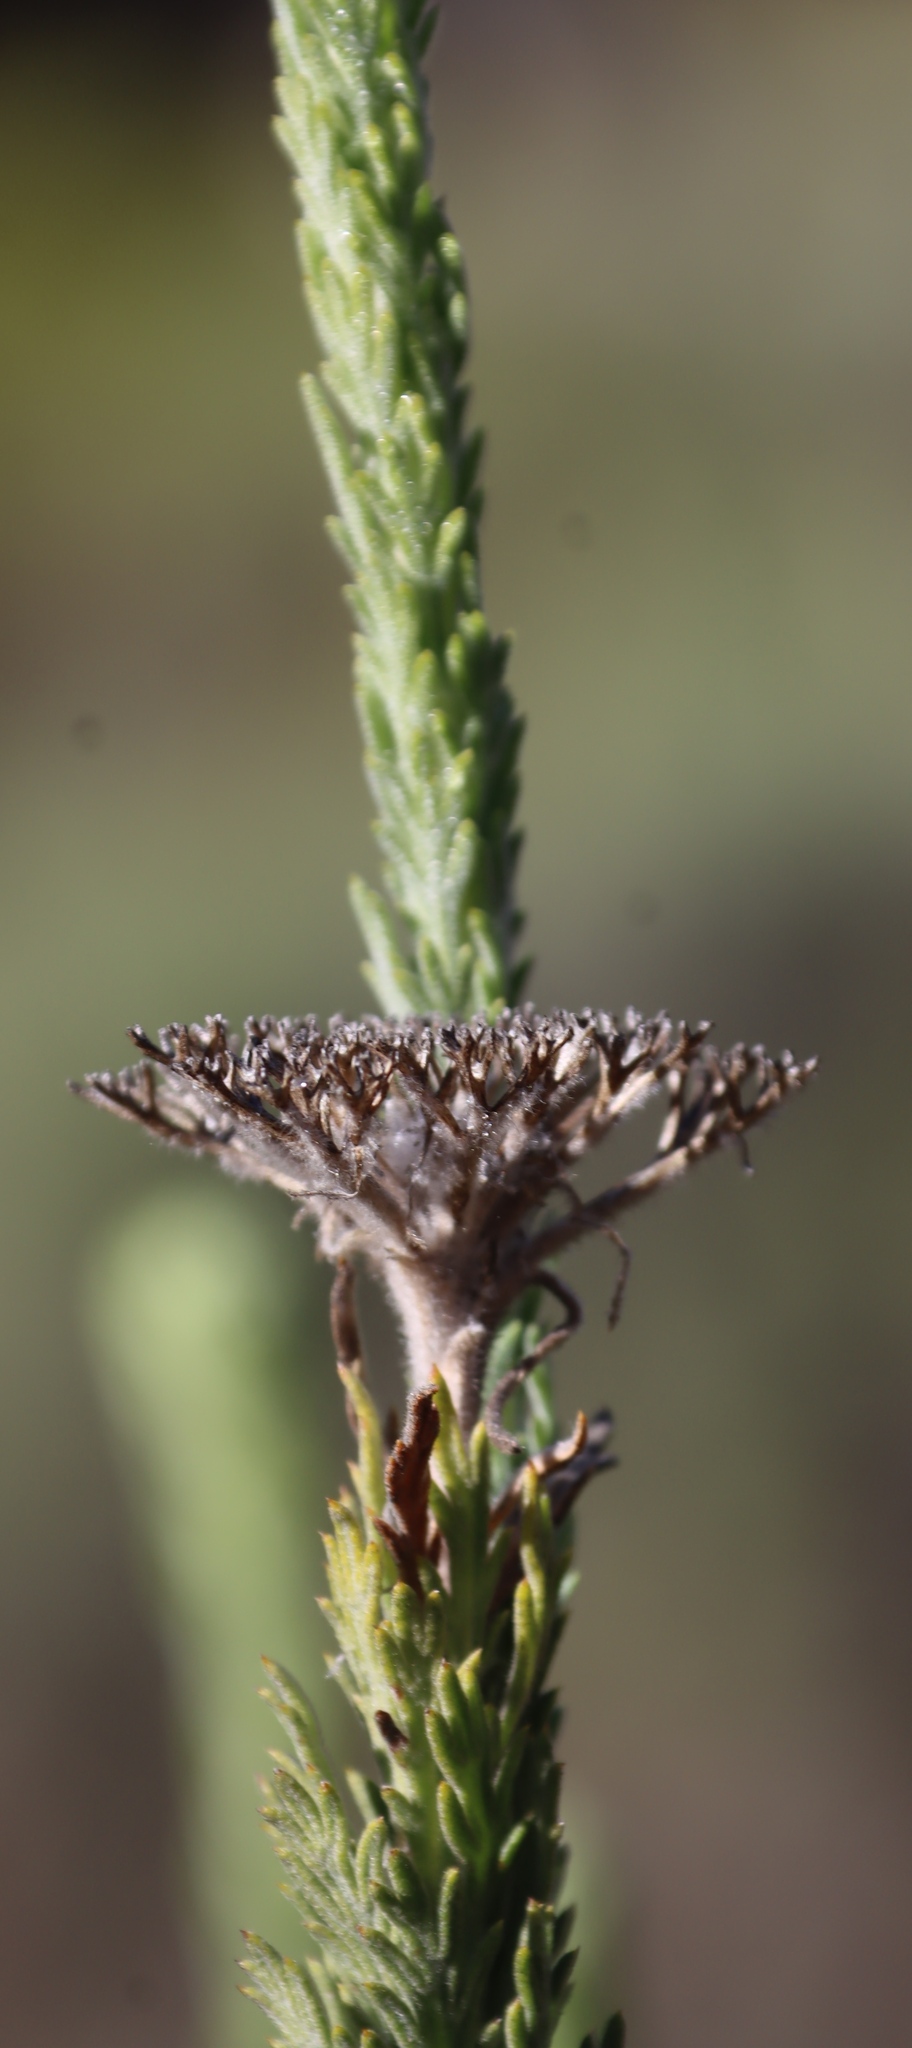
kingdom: Plantae
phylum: Tracheophyta
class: Magnoliopsida
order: Asterales
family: Asteraceae
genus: Athanasia
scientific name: Athanasia pinnata
